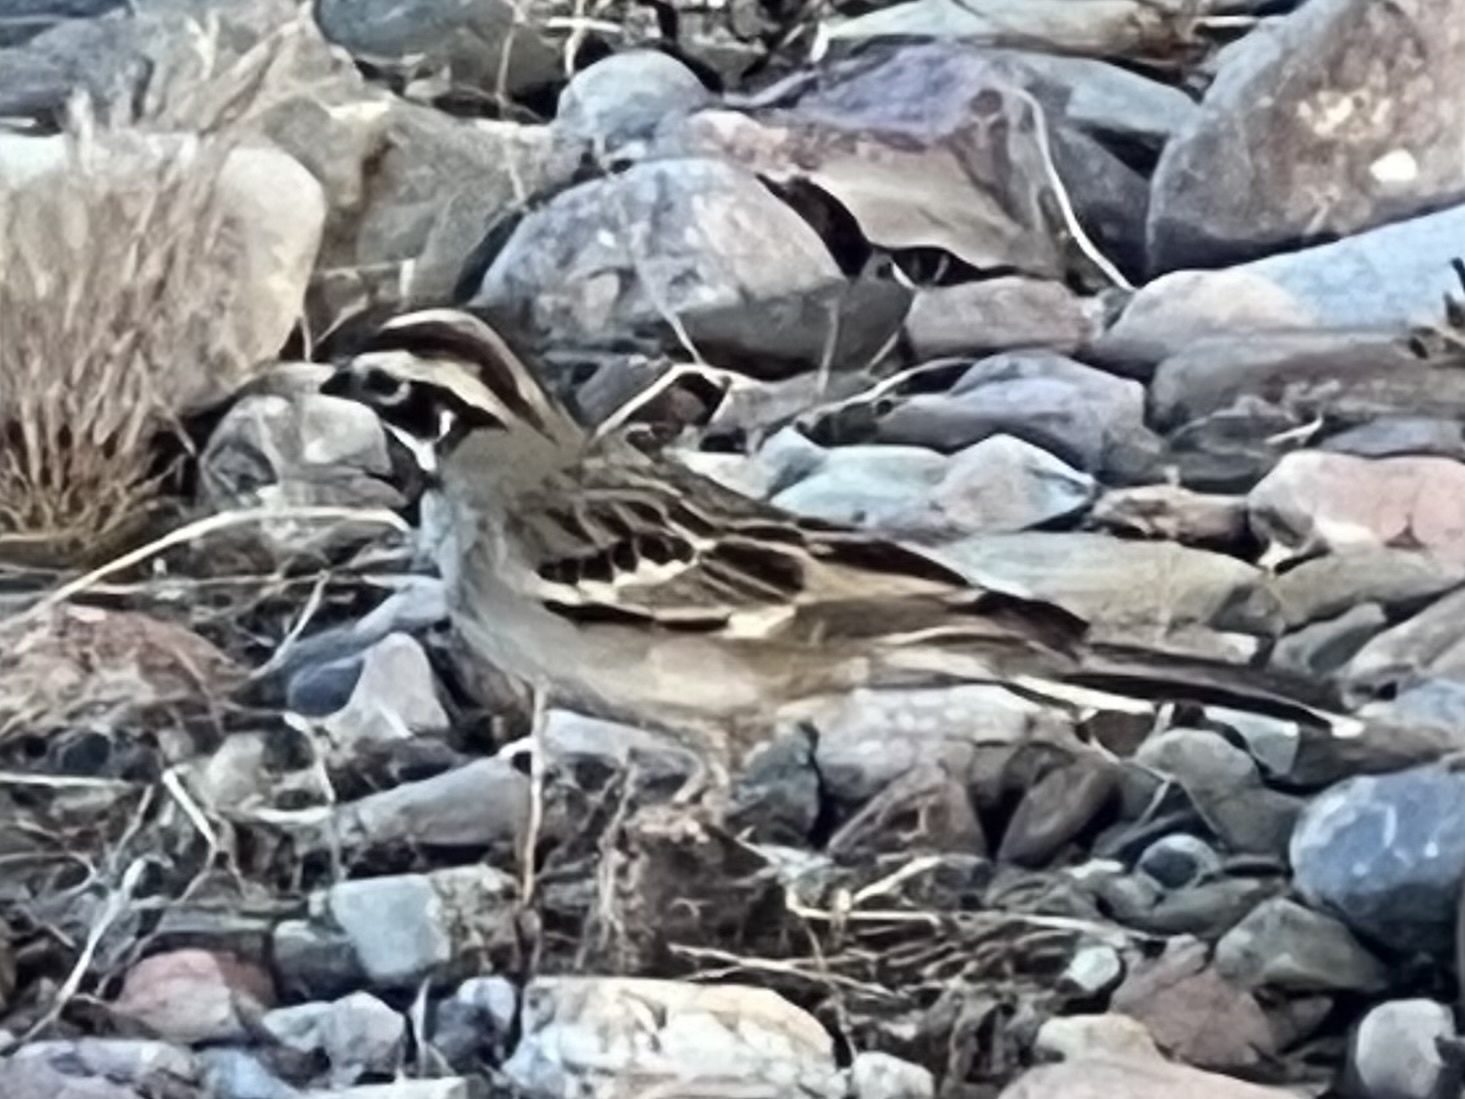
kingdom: Animalia
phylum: Chordata
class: Aves
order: Passeriformes
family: Passerellidae
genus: Chondestes
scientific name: Chondestes grammacus
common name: Lark sparrow
